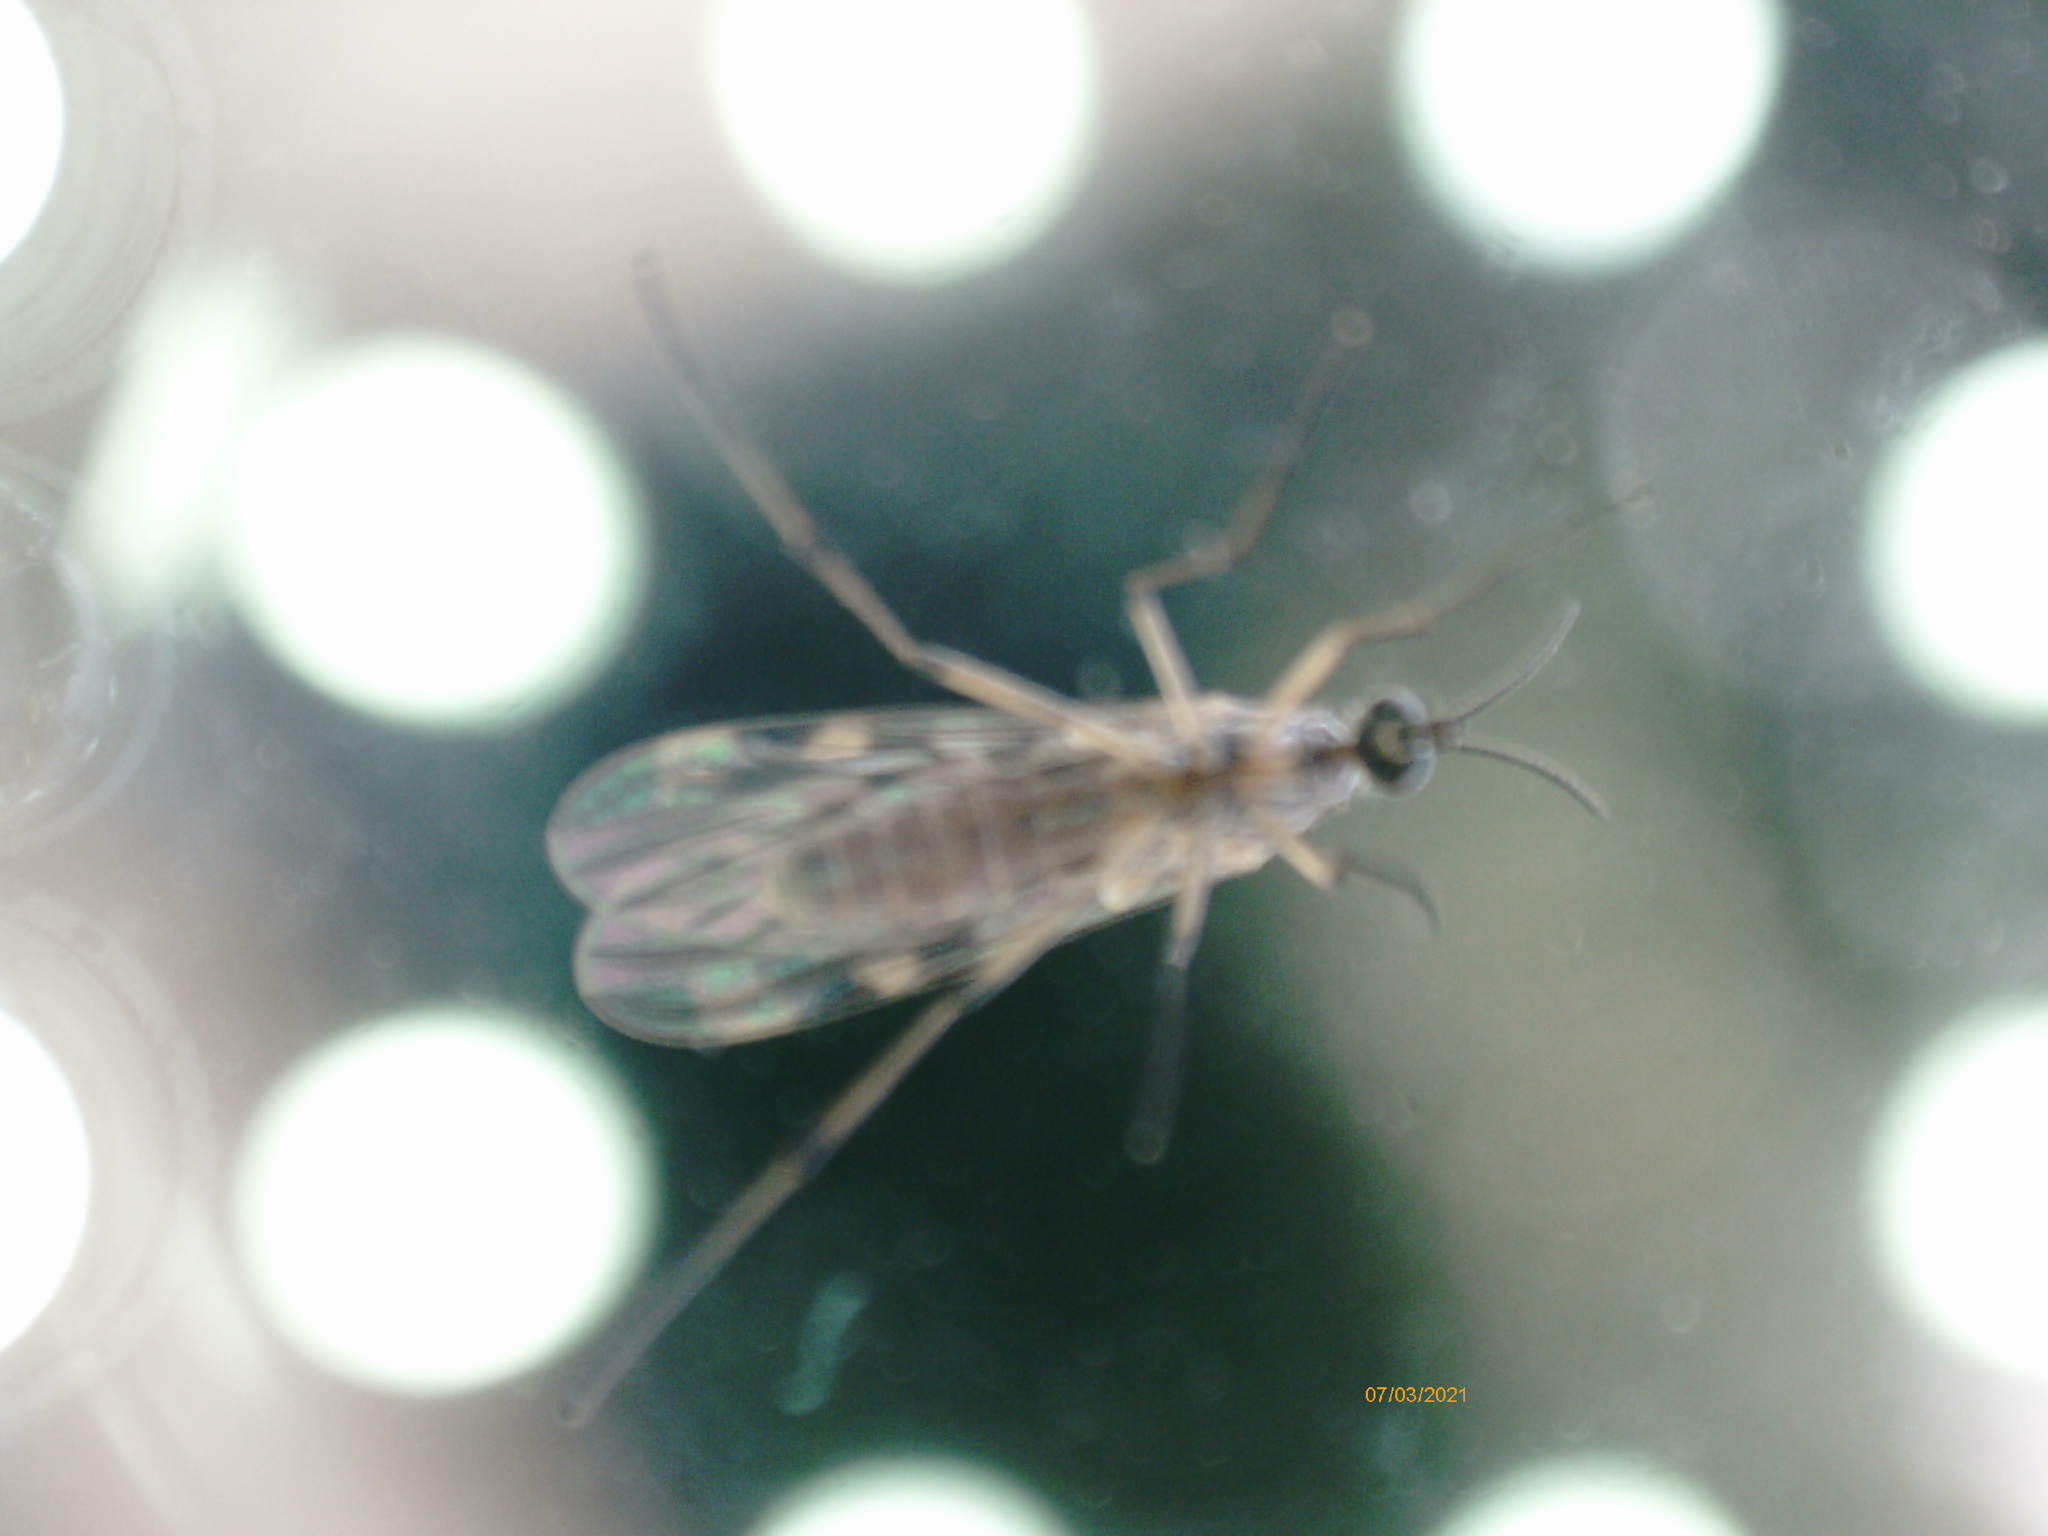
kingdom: Animalia
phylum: Arthropoda
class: Insecta
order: Diptera
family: Anisopodidae
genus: Sylvicola
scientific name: Sylvicola
